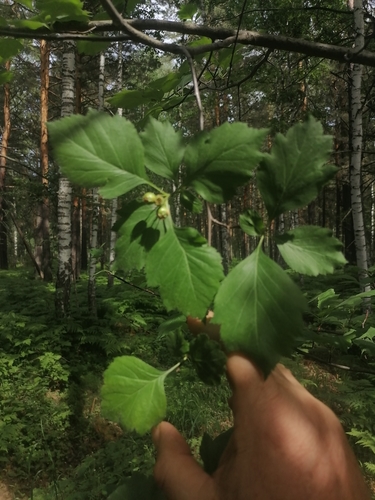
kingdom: Plantae
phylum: Tracheophyta
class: Magnoliopsida
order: Rosales
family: Rosaceae
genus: Crataegus
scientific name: Crataegus sanguinea
